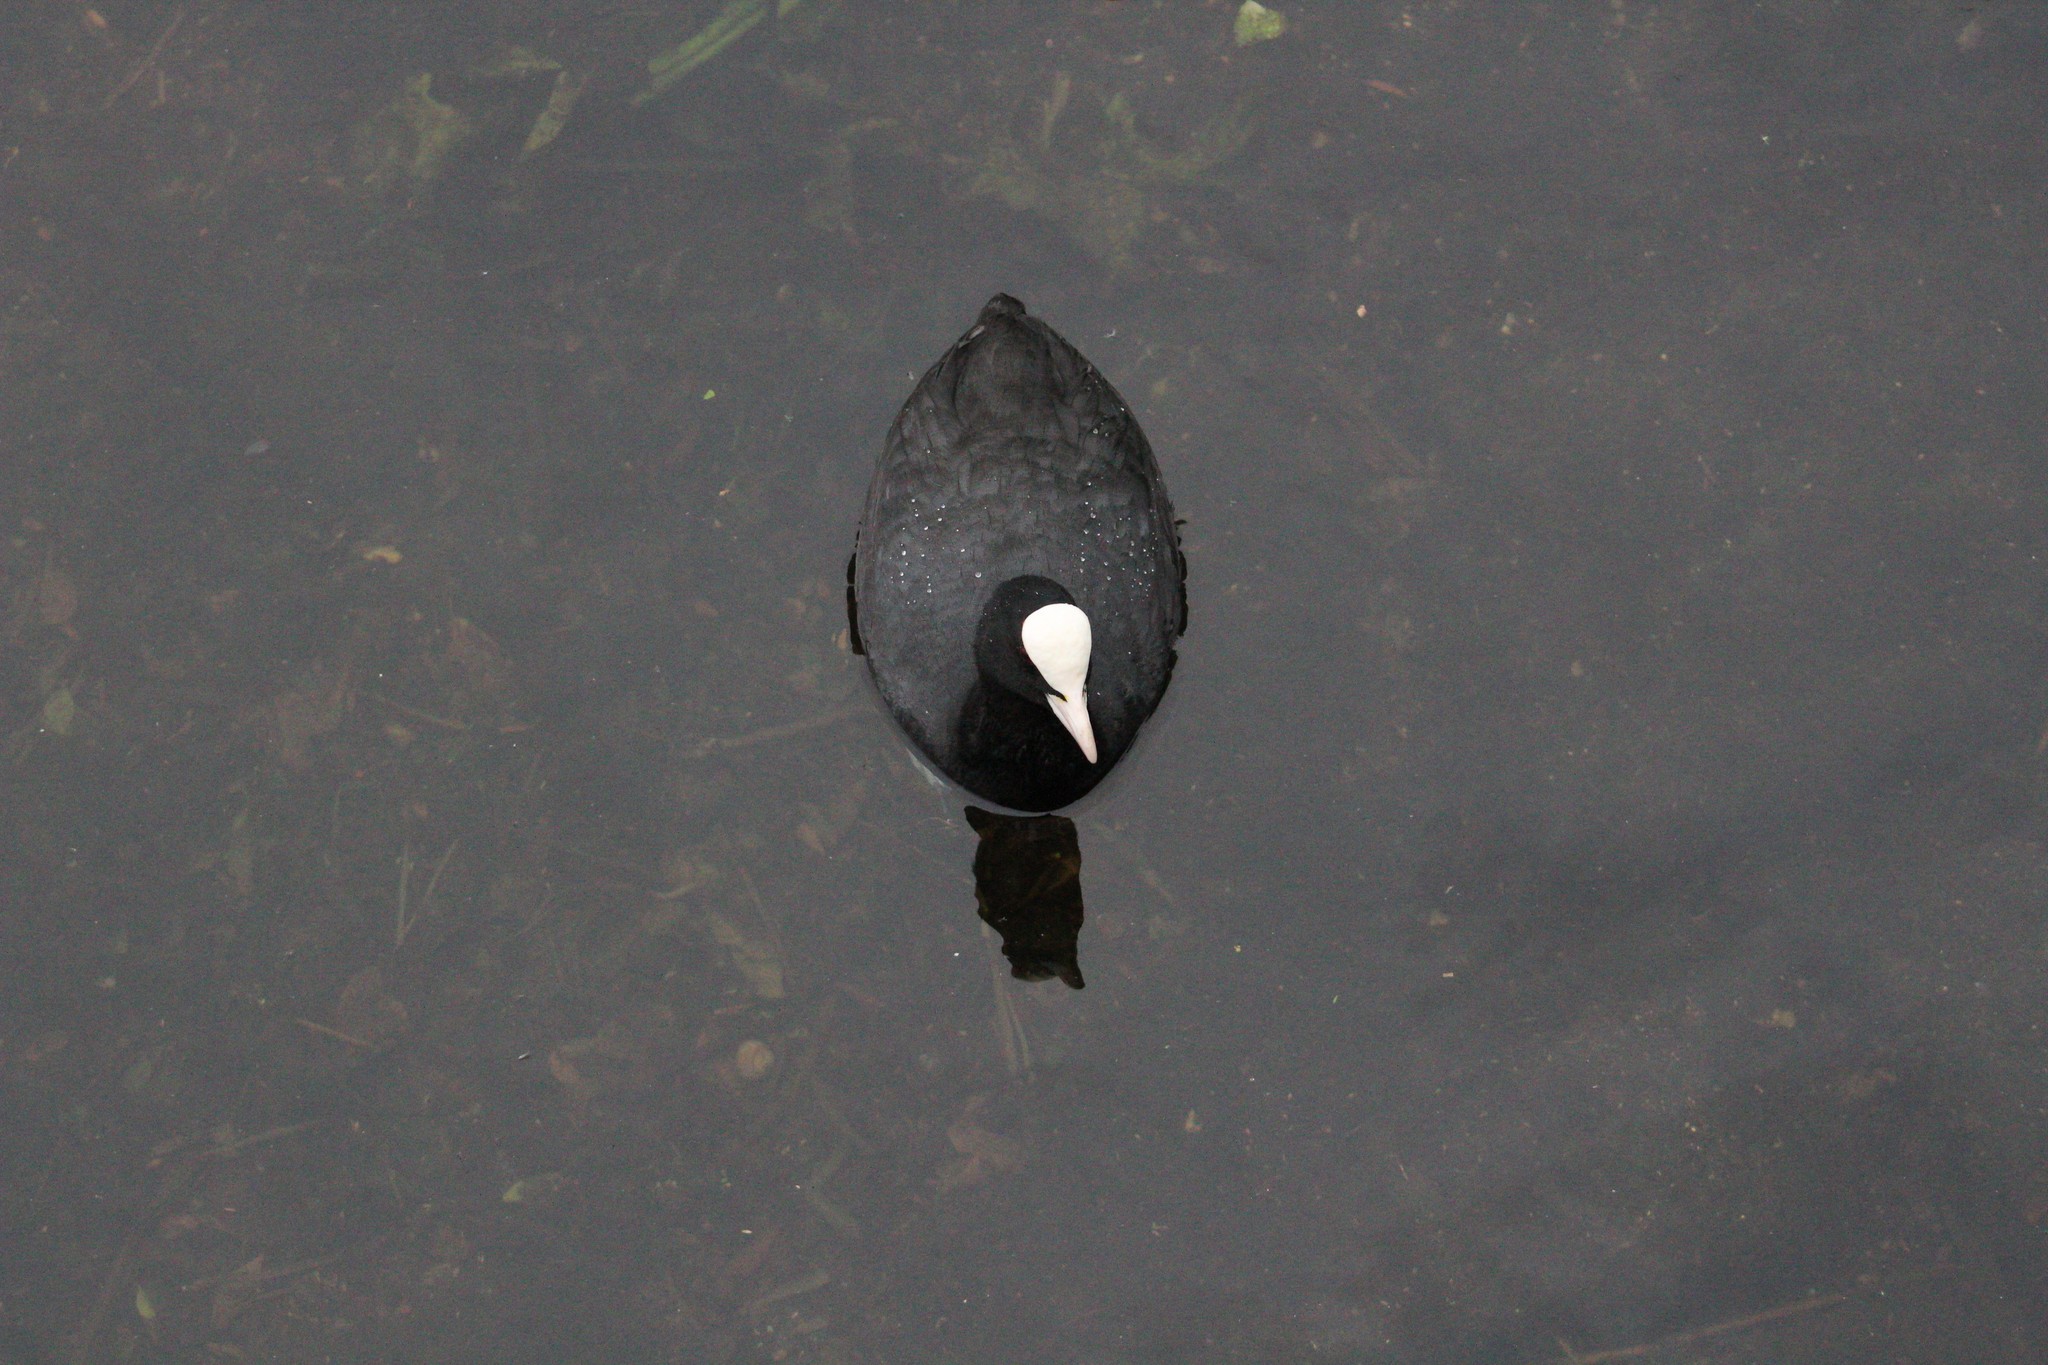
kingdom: Animalia
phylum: Chordata
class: Aves
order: Gruiformes
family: Rallidae
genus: Fulica
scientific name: Fulica atra
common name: Eurasian coot
